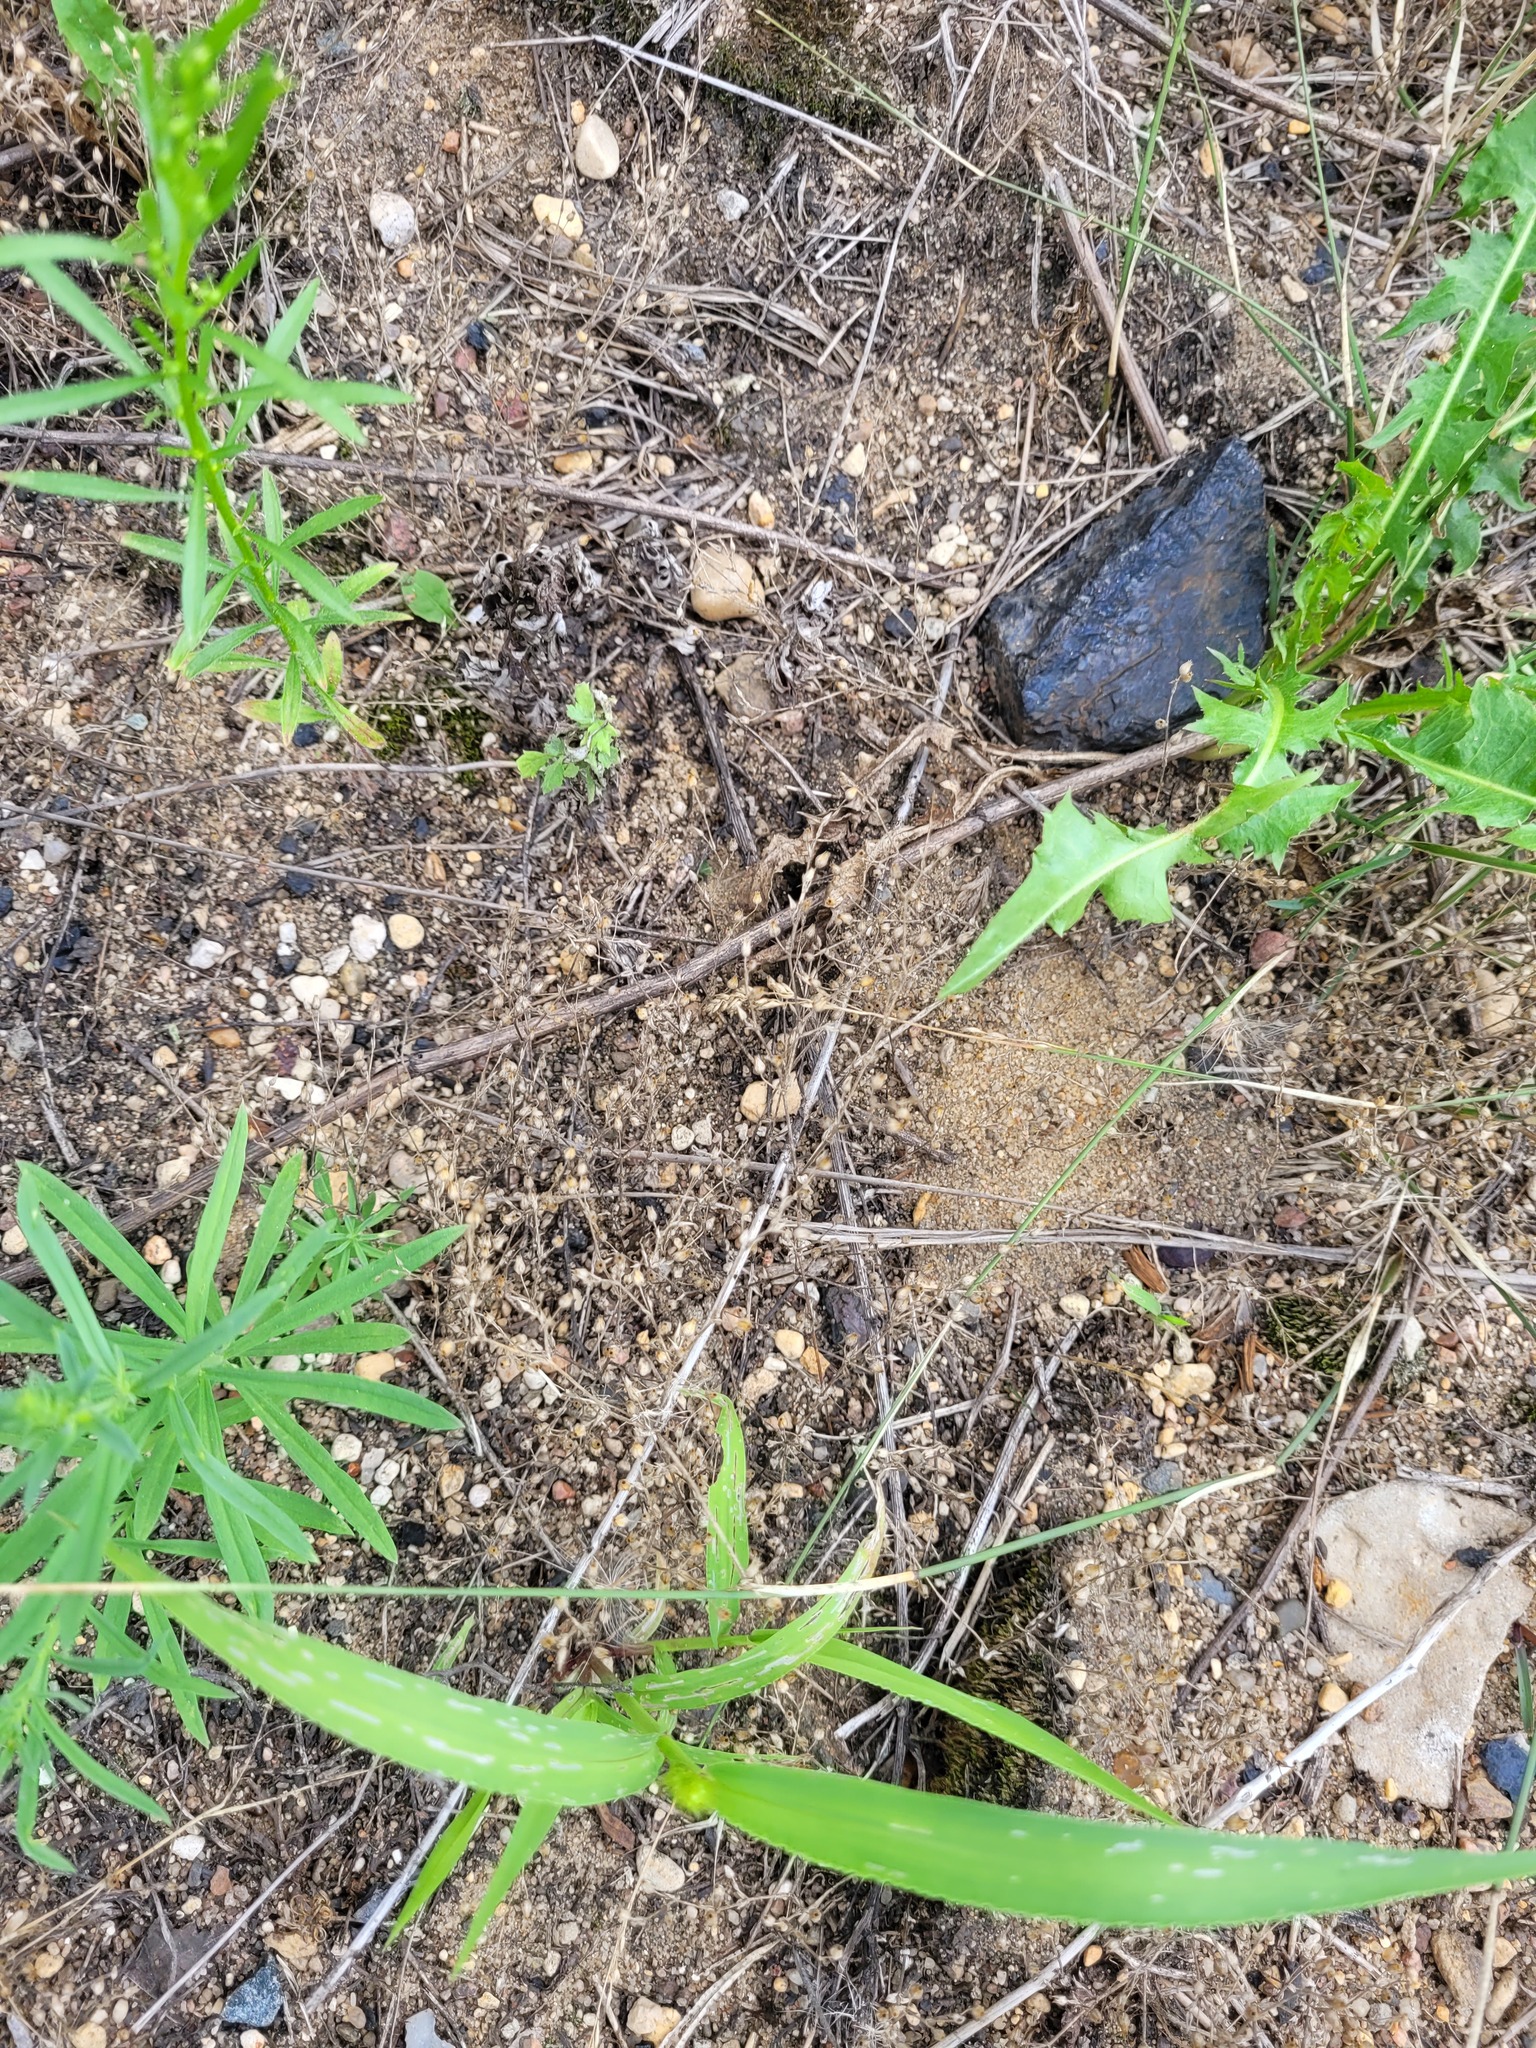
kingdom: Plantae
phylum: Tracheophyta
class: Magnoliopsida
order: Caryophyllales
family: Caryophyllaceae
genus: Arenaria
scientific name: Arenaria serpyllifolia
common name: Thyme-leaved sandwort
